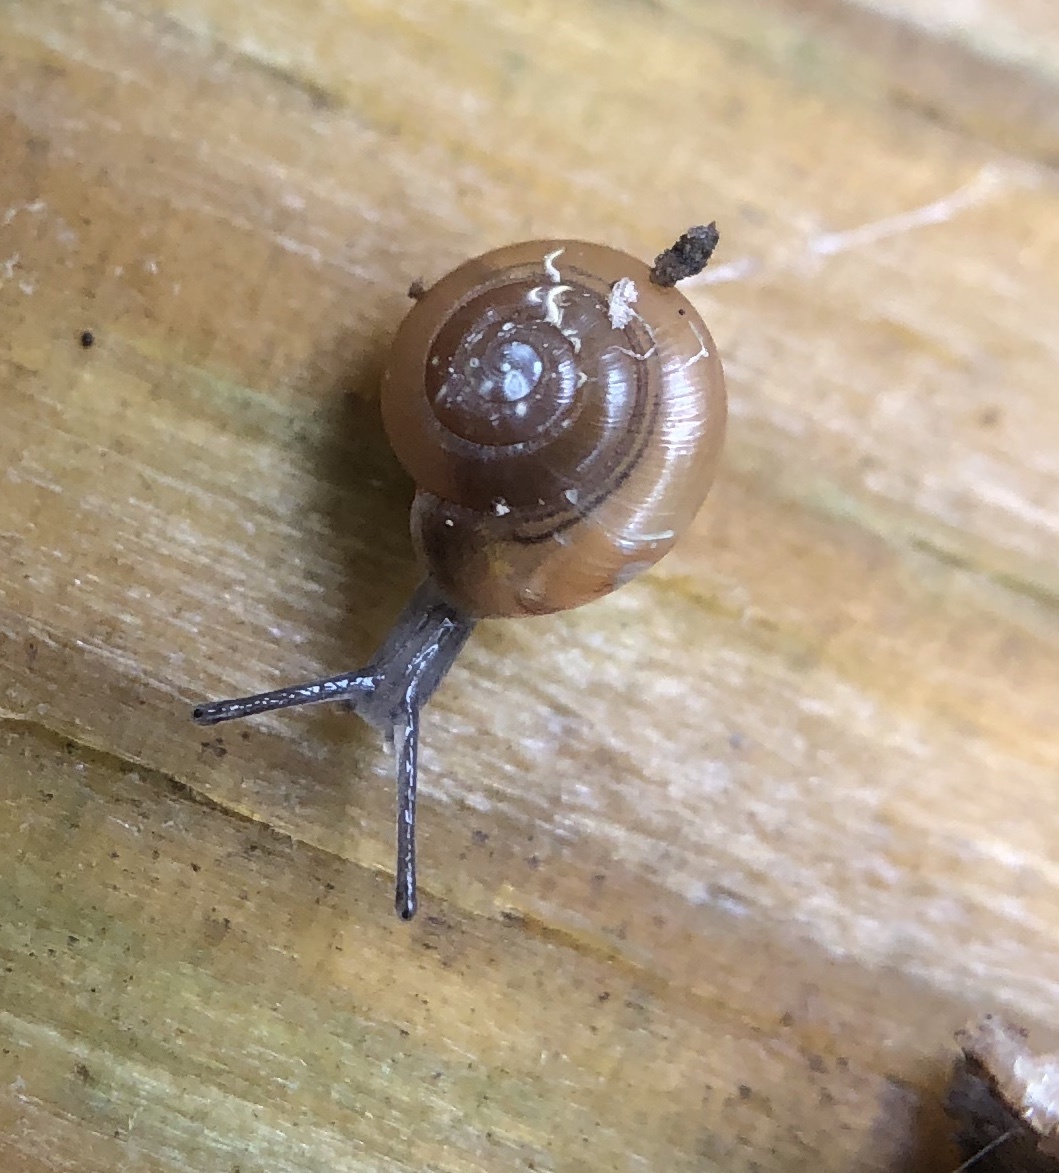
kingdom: Animalia
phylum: Mollusca
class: Gastropoda
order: Stylommatophora
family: Gastrodontidae
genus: Zonitoides
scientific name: Zonitoides arboreus
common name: Quick gloss
